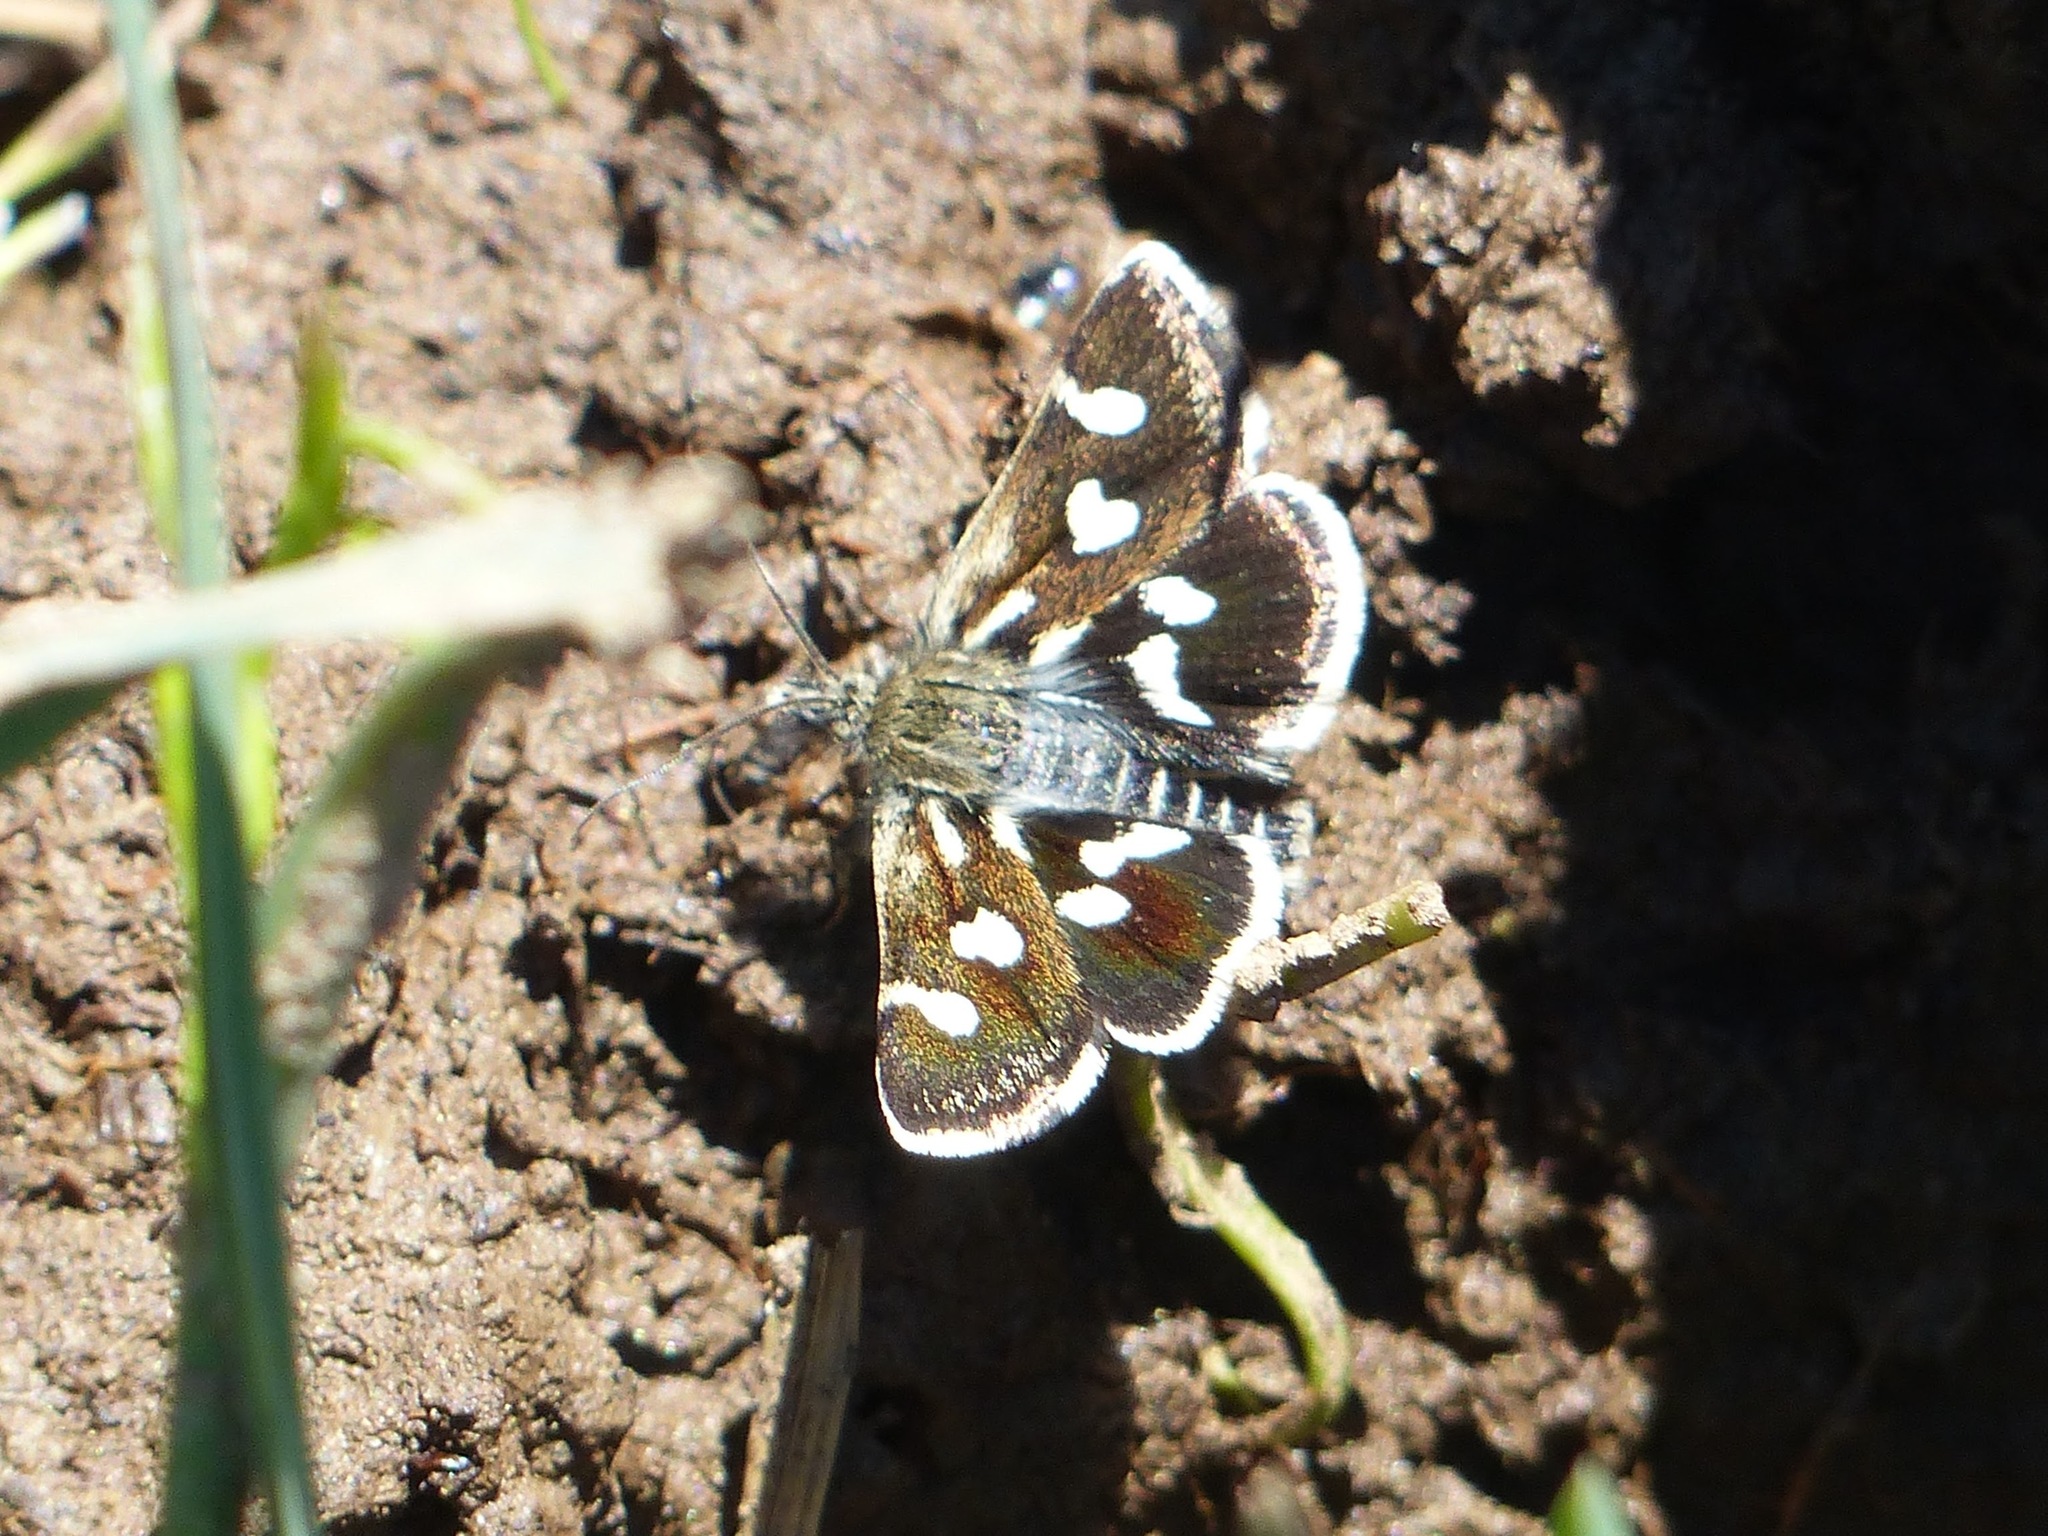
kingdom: Animalia
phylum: Arthropoda
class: Insecta
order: Lepidoptera
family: Crambidae
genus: Eurrhypis
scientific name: Eurrhypis pollinalis
